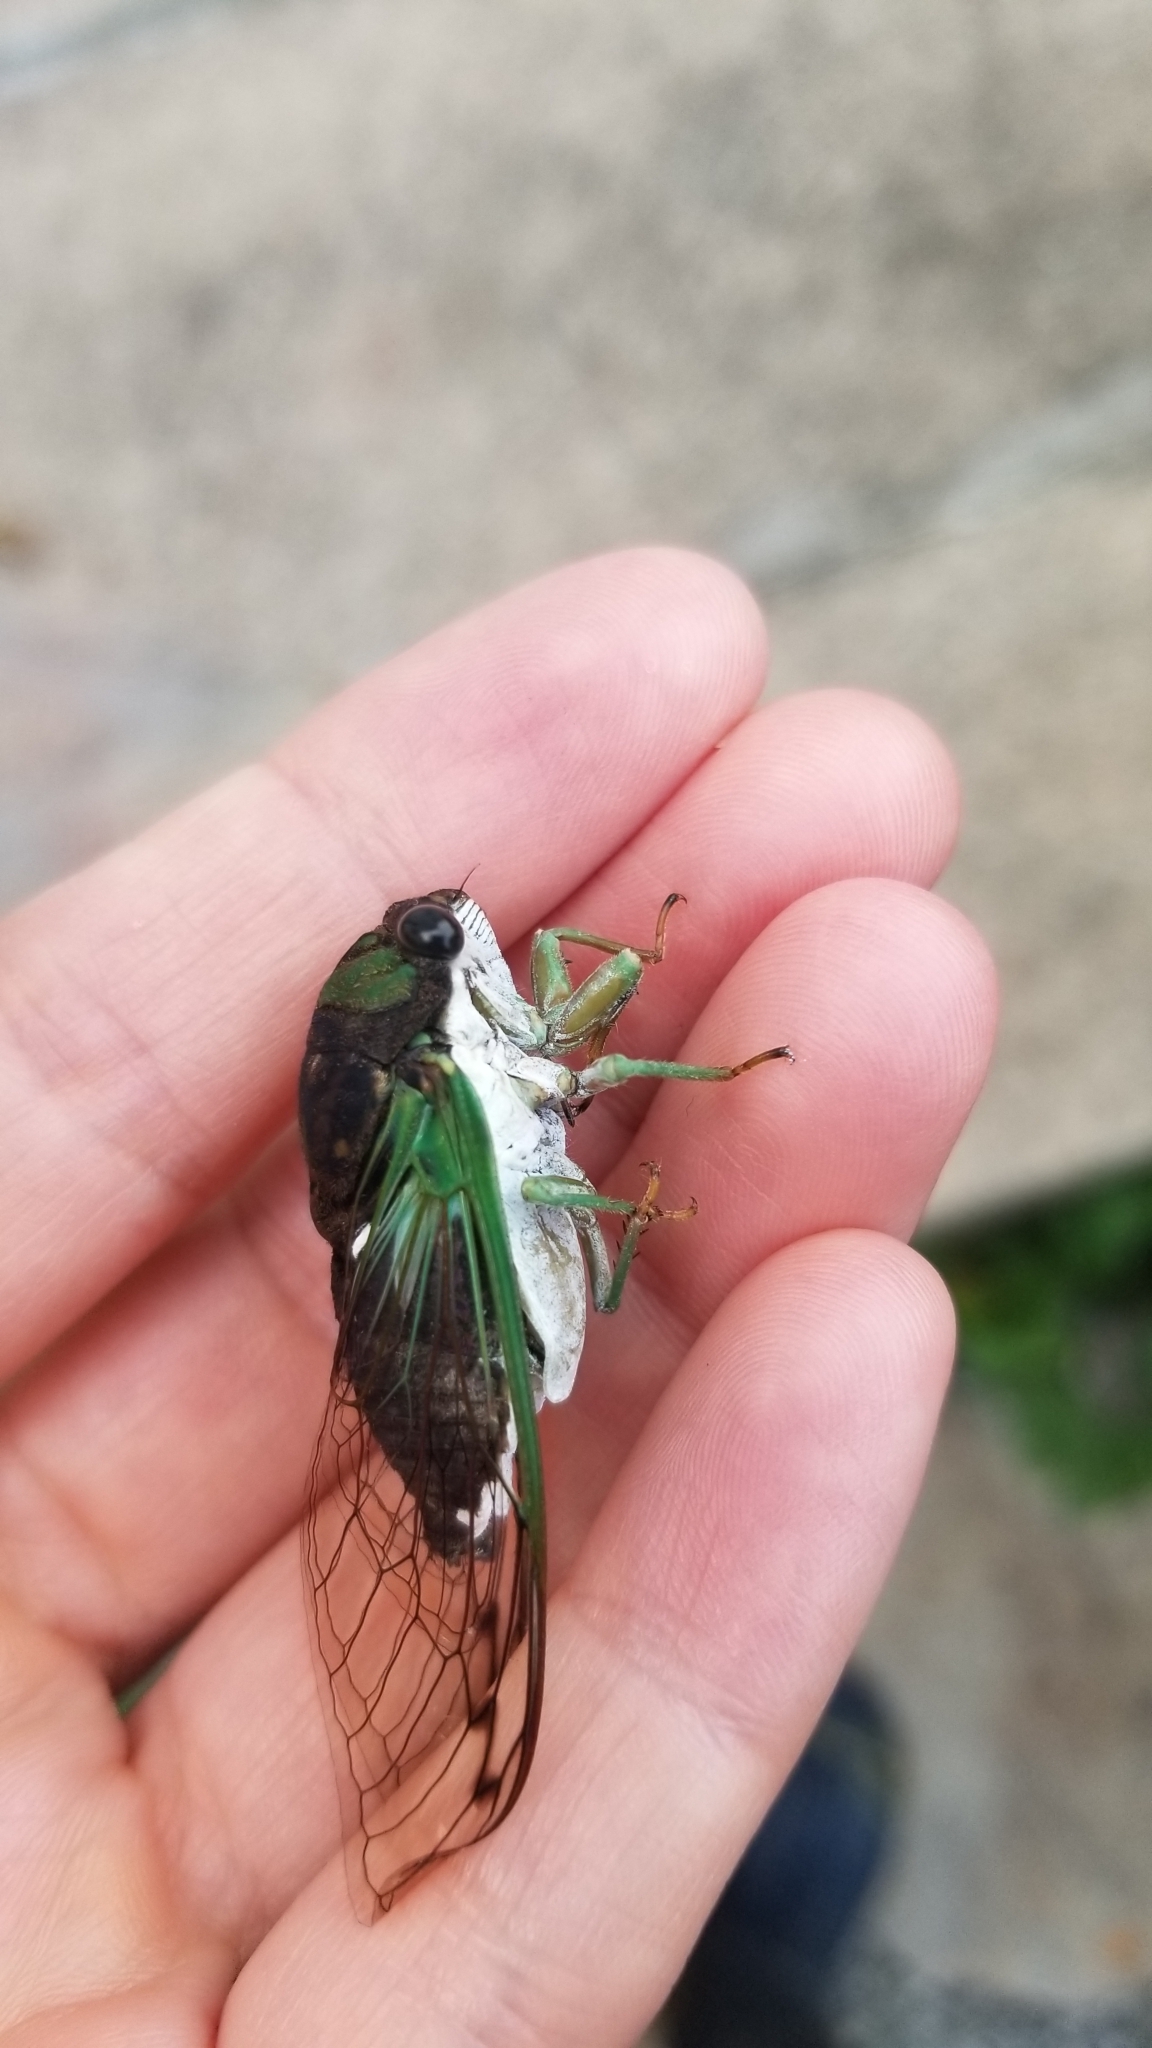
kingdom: Animalia
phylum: Arthropoda
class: Insecta
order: Hemiptera
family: Cicadidae
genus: Neotibicen
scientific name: Neotibicen tibicen
